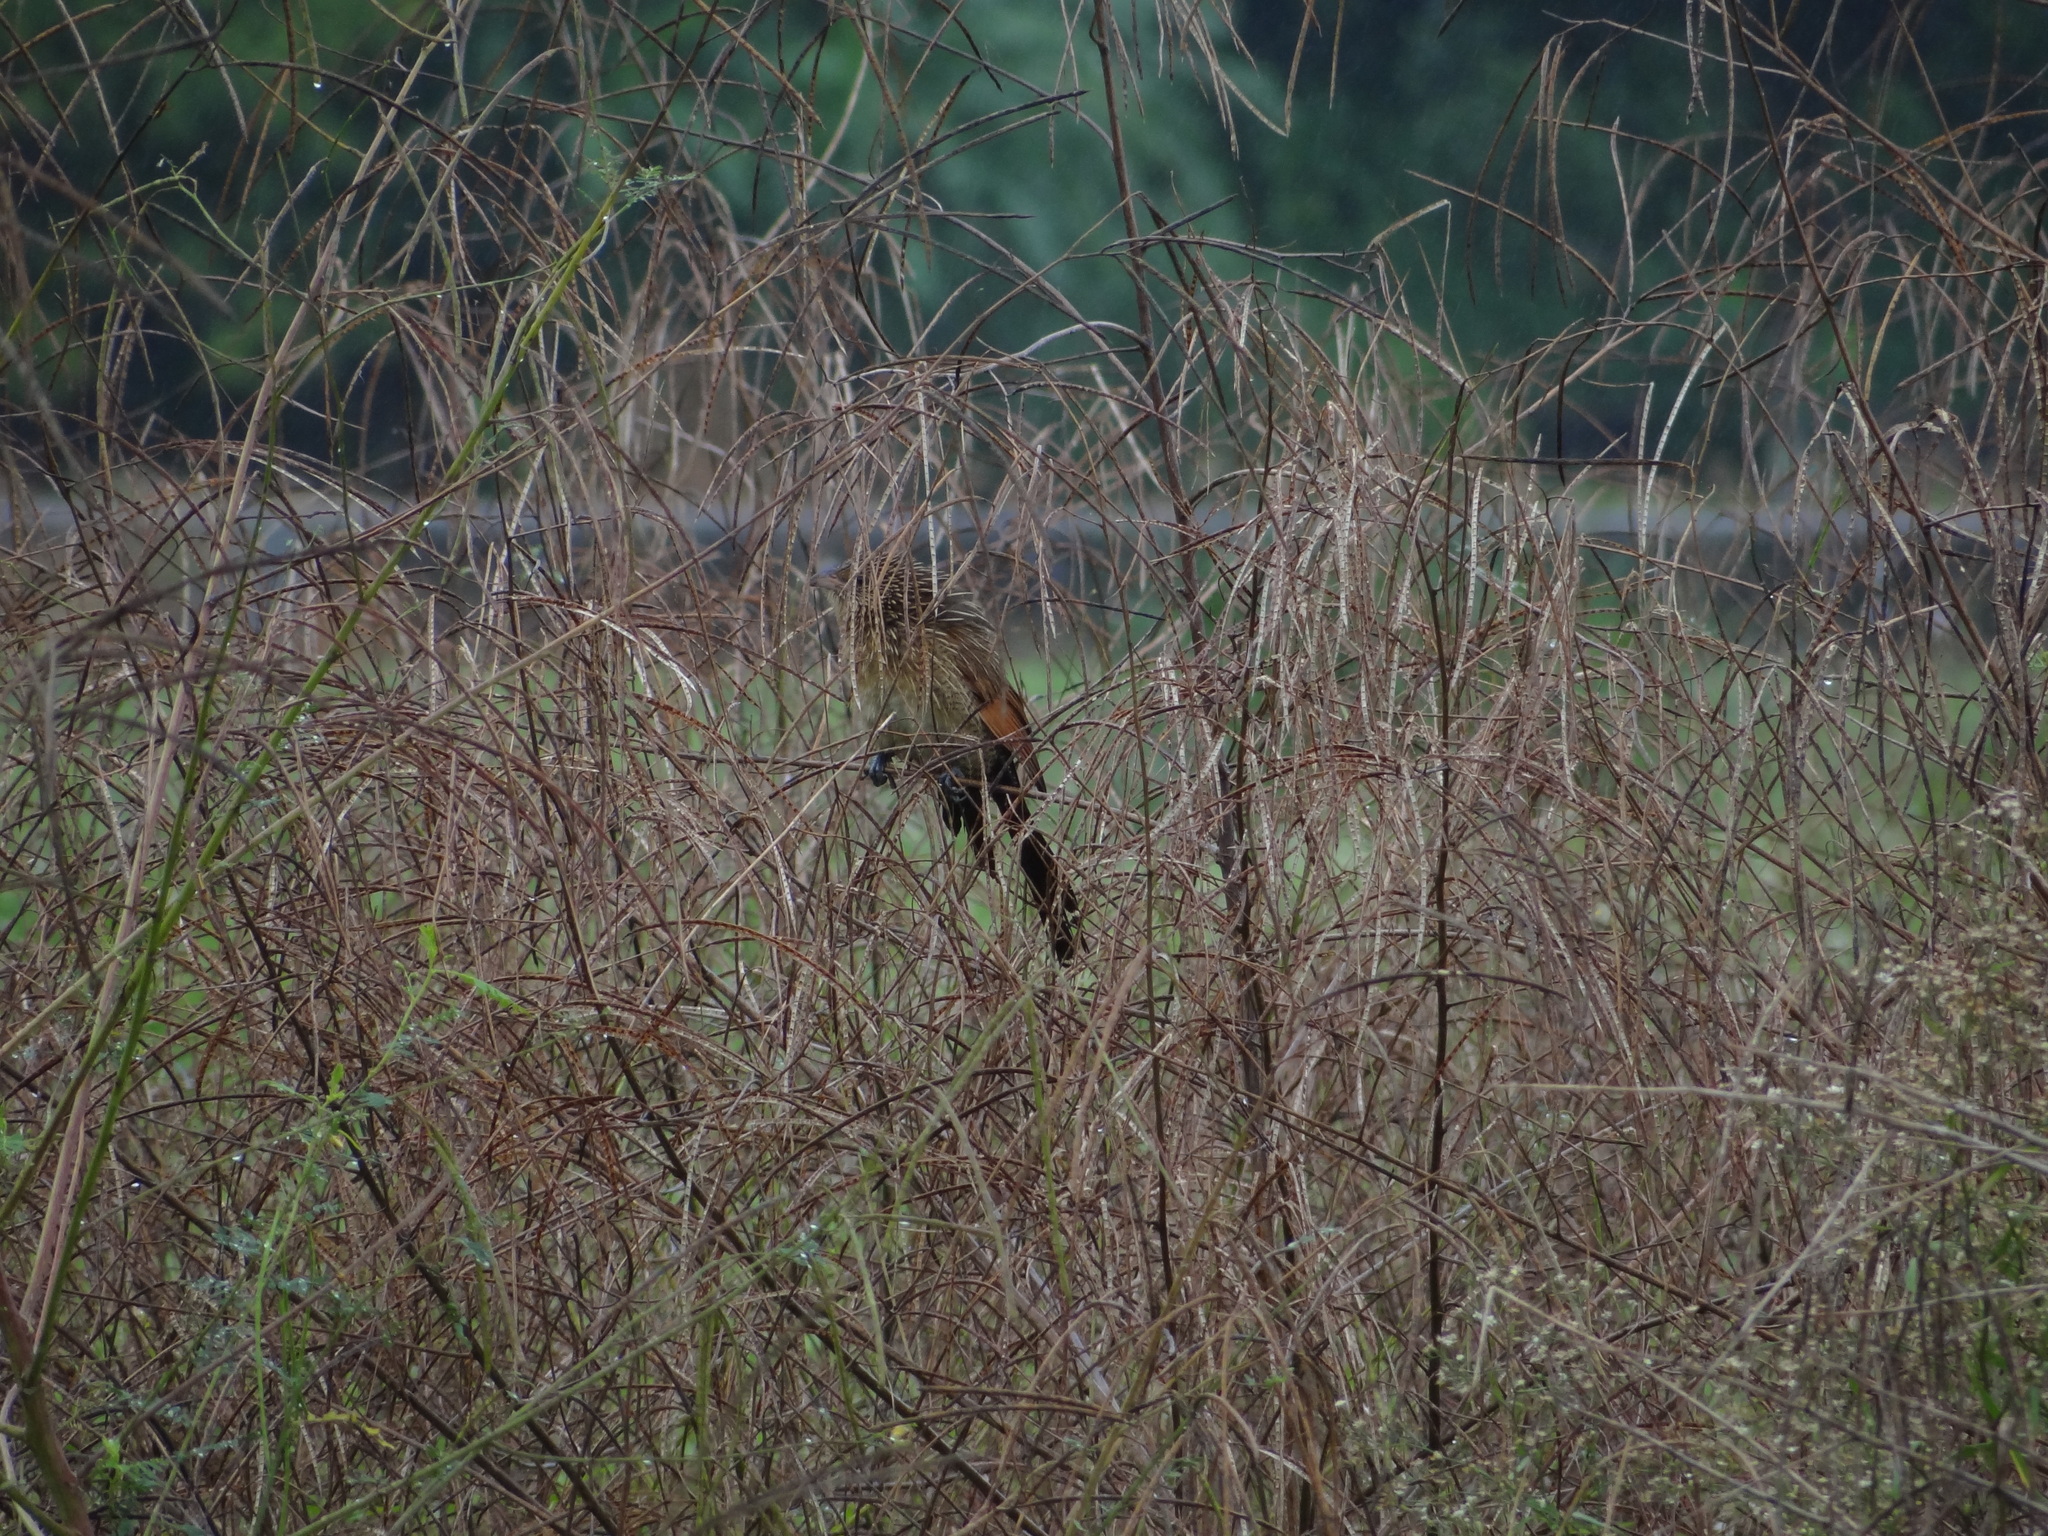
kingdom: Animalia
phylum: Chordata
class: Aves
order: Cuculiformes
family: Cuculidae
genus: Centropus
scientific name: Centropus bengalensis
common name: Lesser coucal
